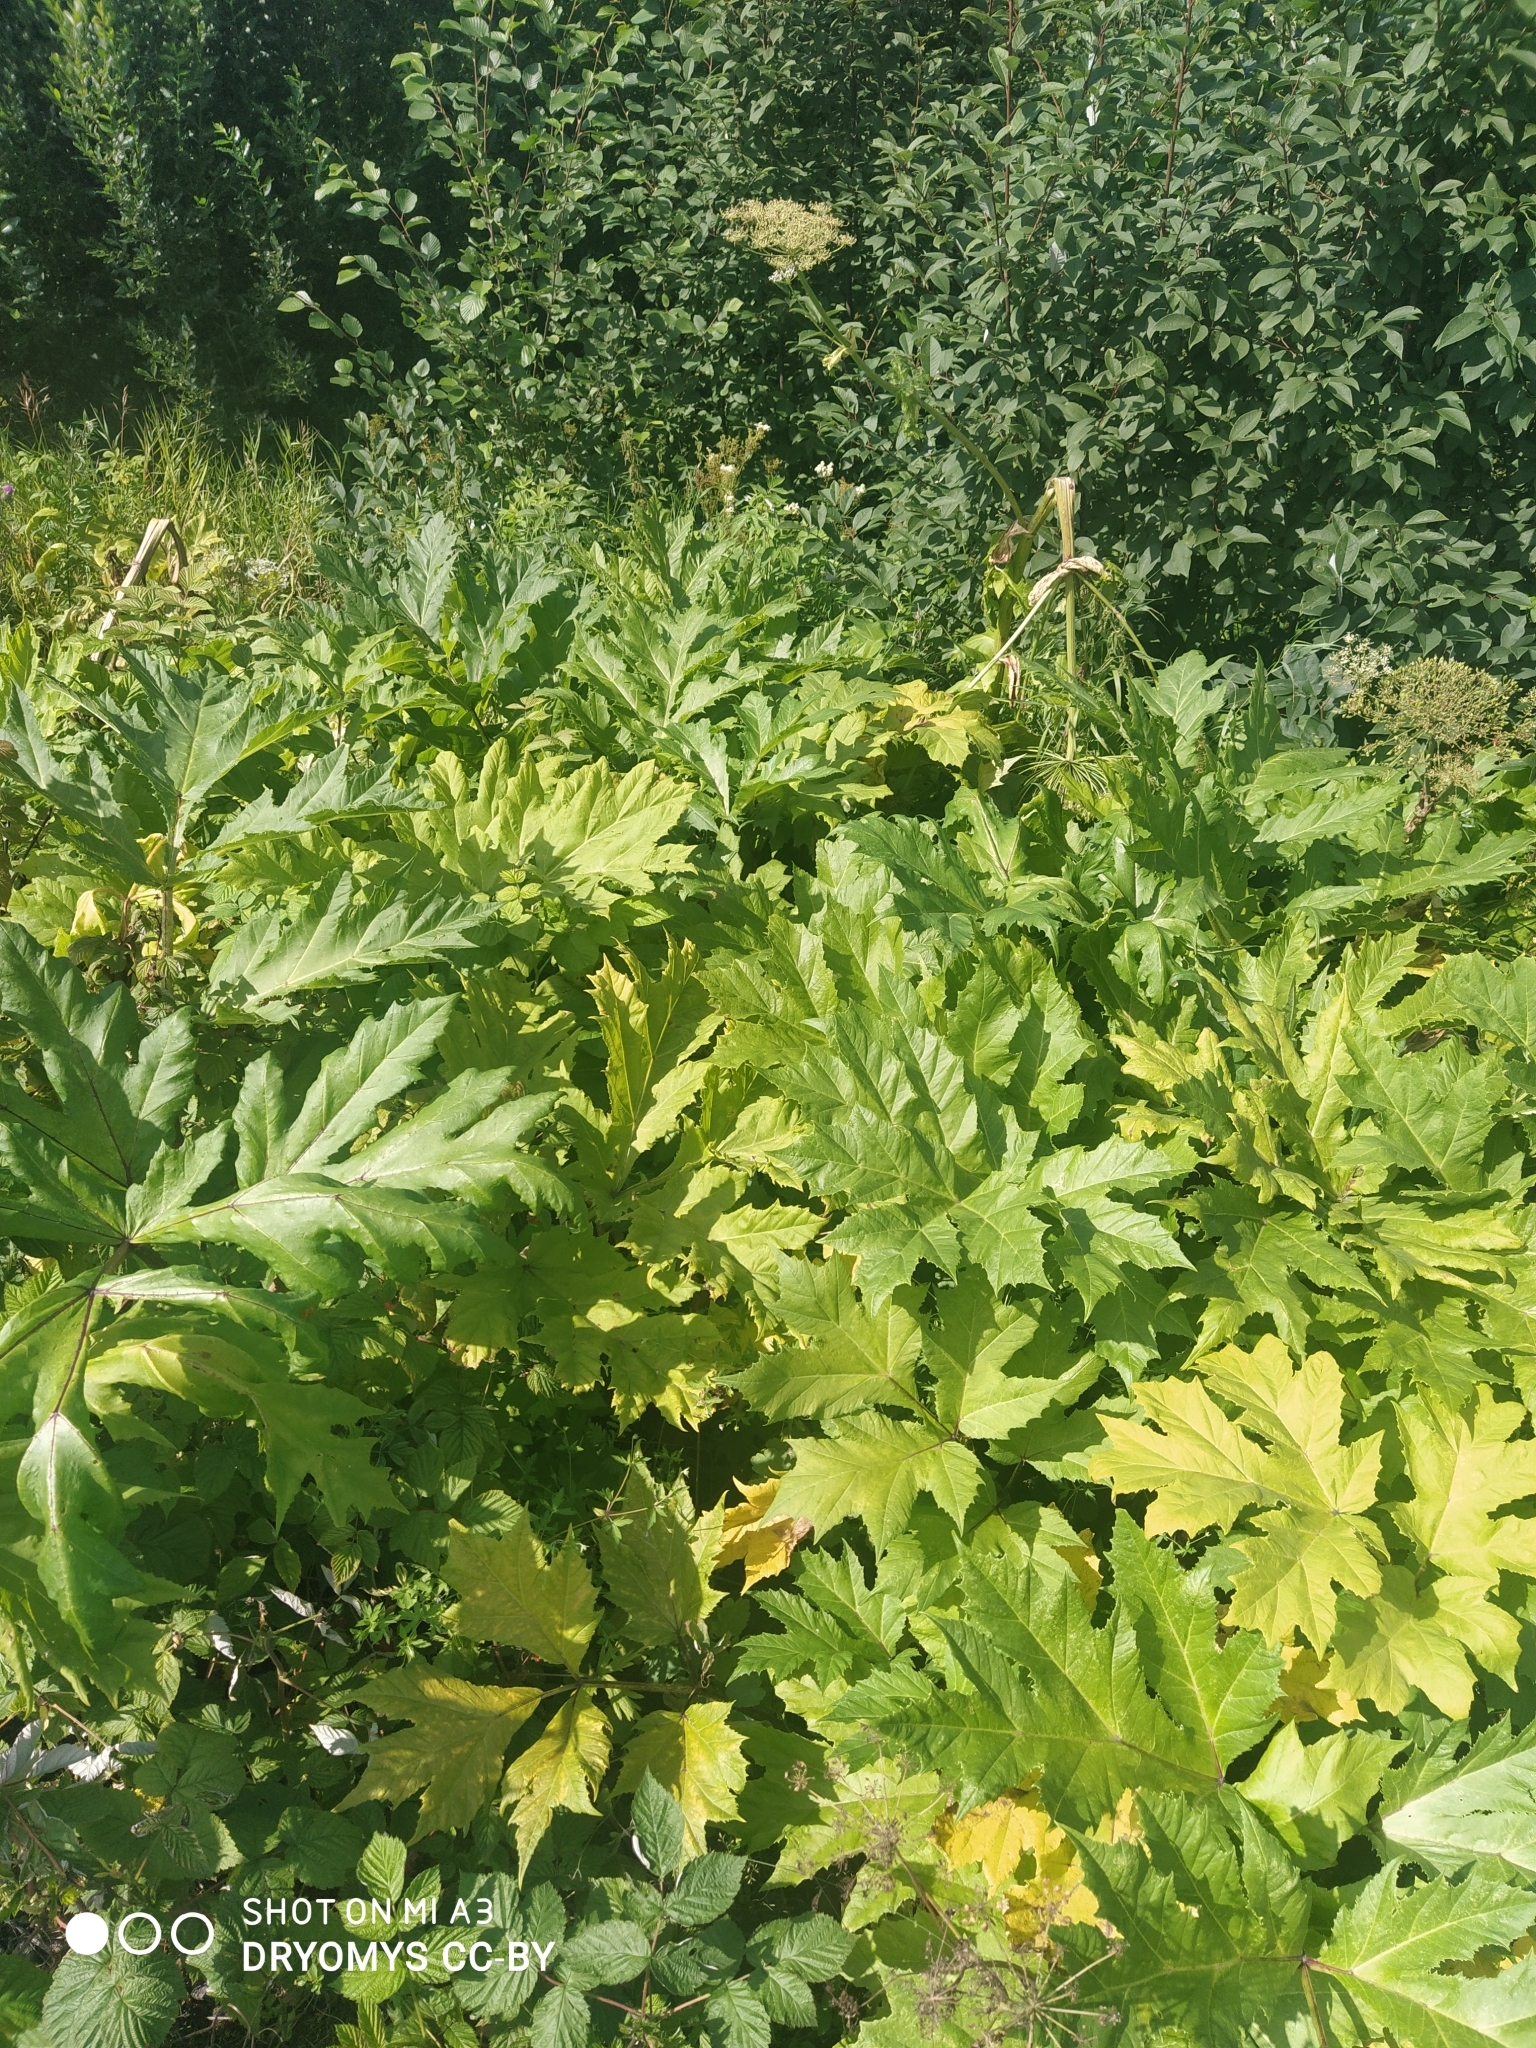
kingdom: Plantae
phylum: Tracheophyta
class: Magnoliopsida
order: Apiales
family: Apiaceae
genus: Heracleum
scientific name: Heracleum sosnowskyi
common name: Sosnowsky's hogweed
